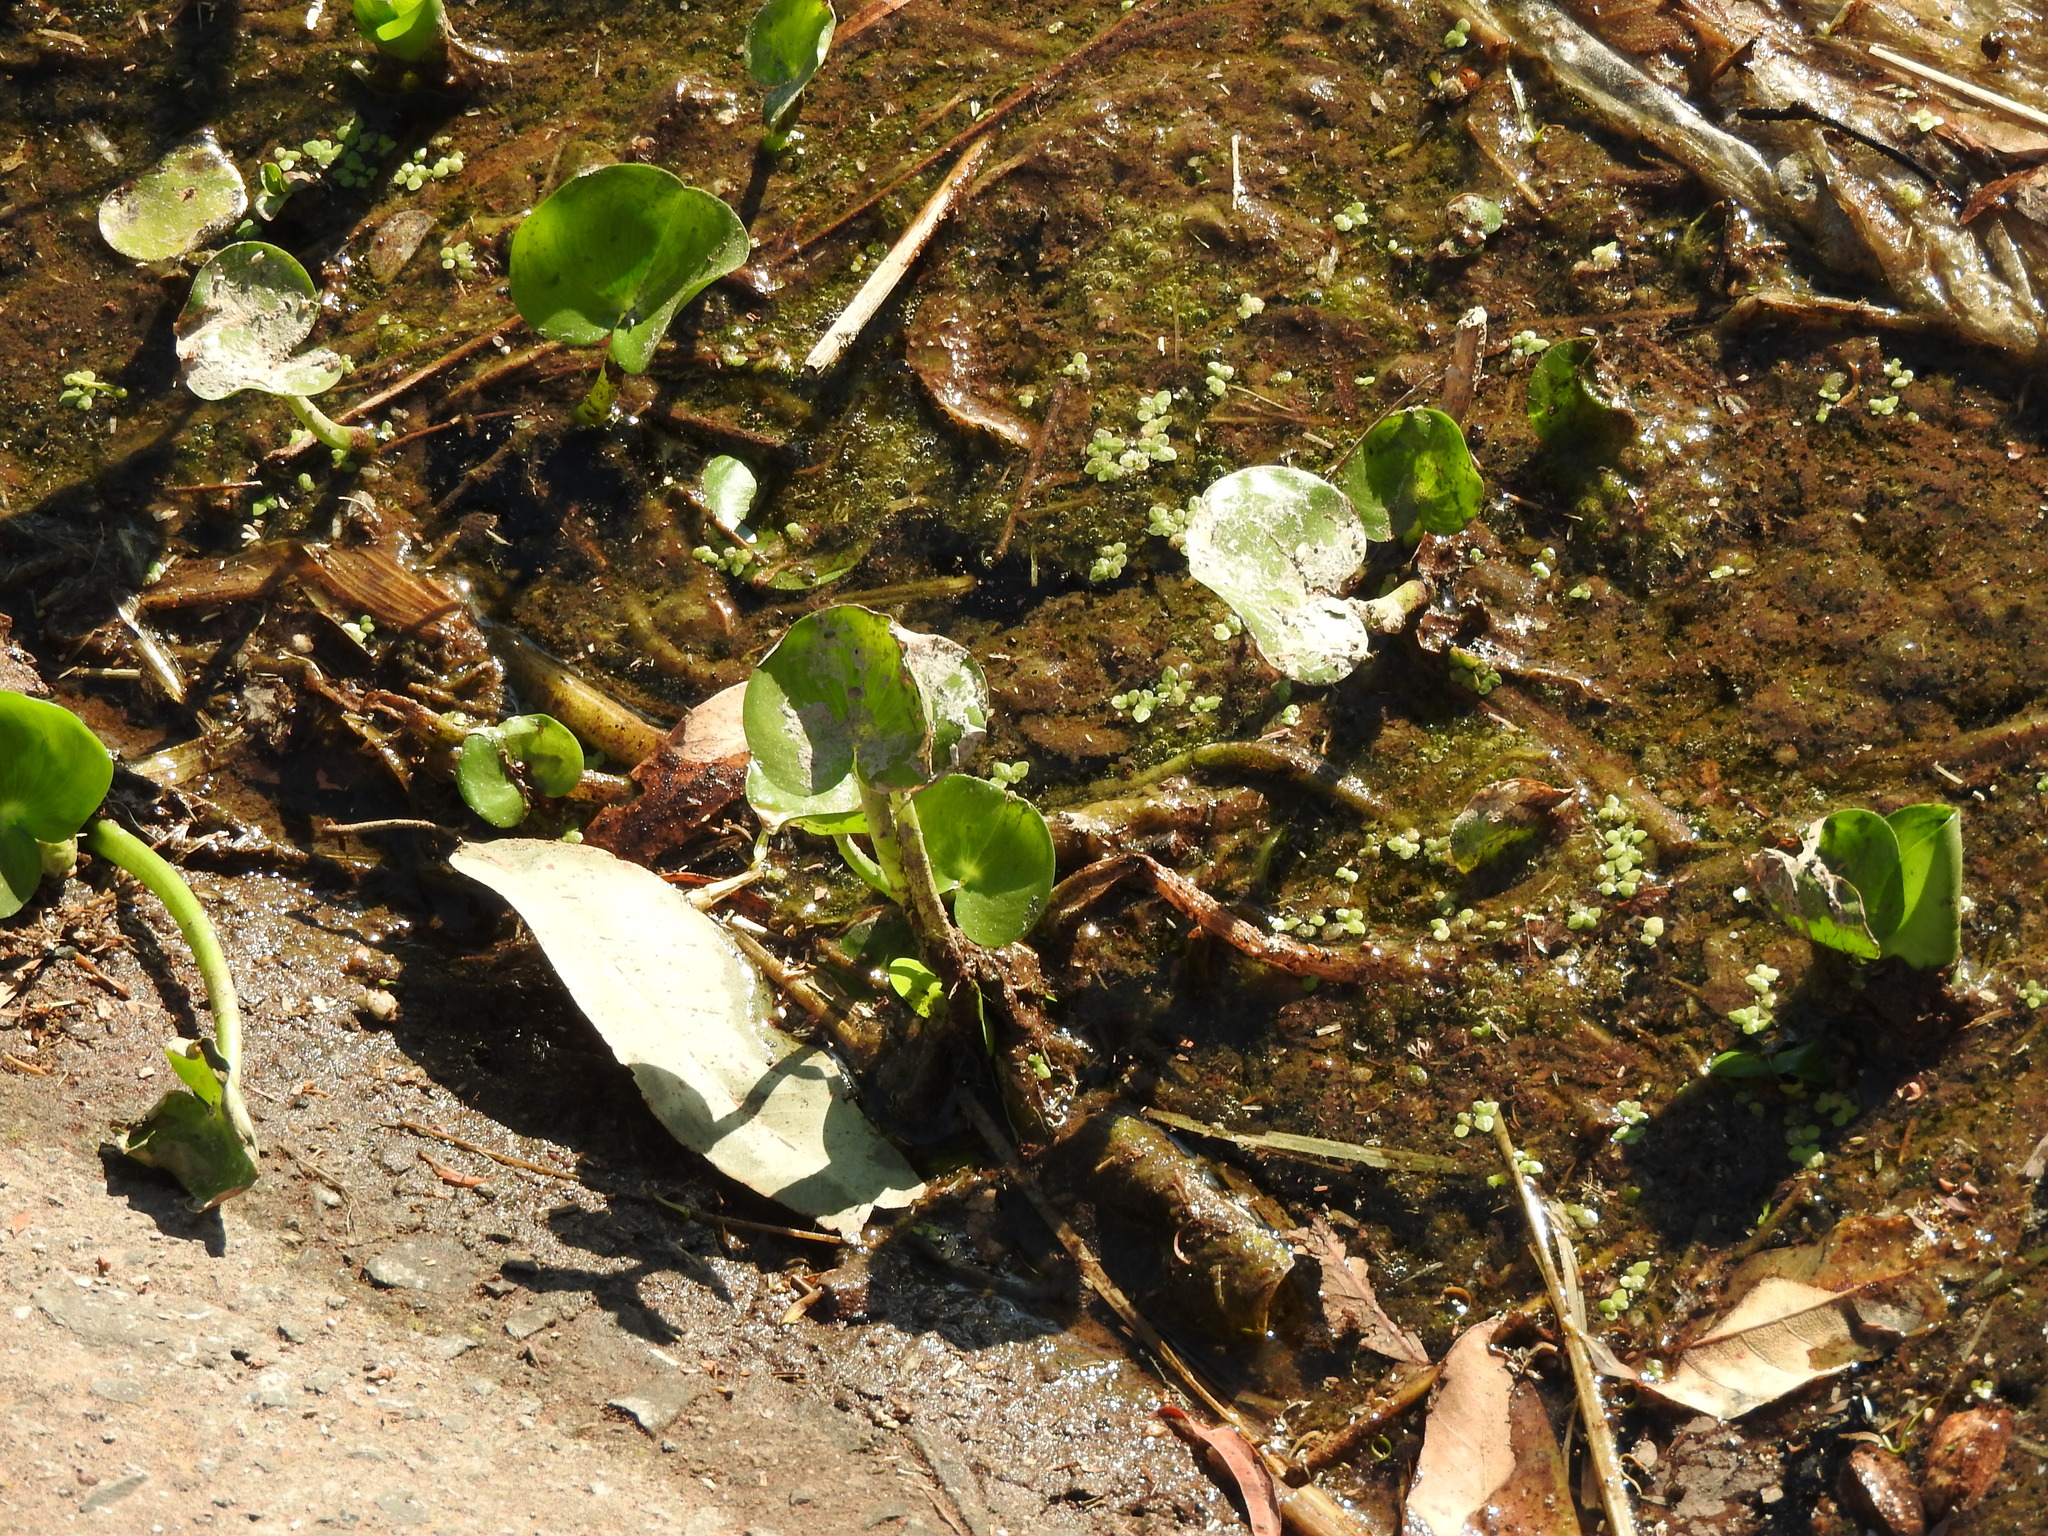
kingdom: Plantae
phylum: Tracheophyta
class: Liliopsida
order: Commelinales
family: Pontederiaceae
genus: Pontederia
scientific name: Pontederia crassipes
